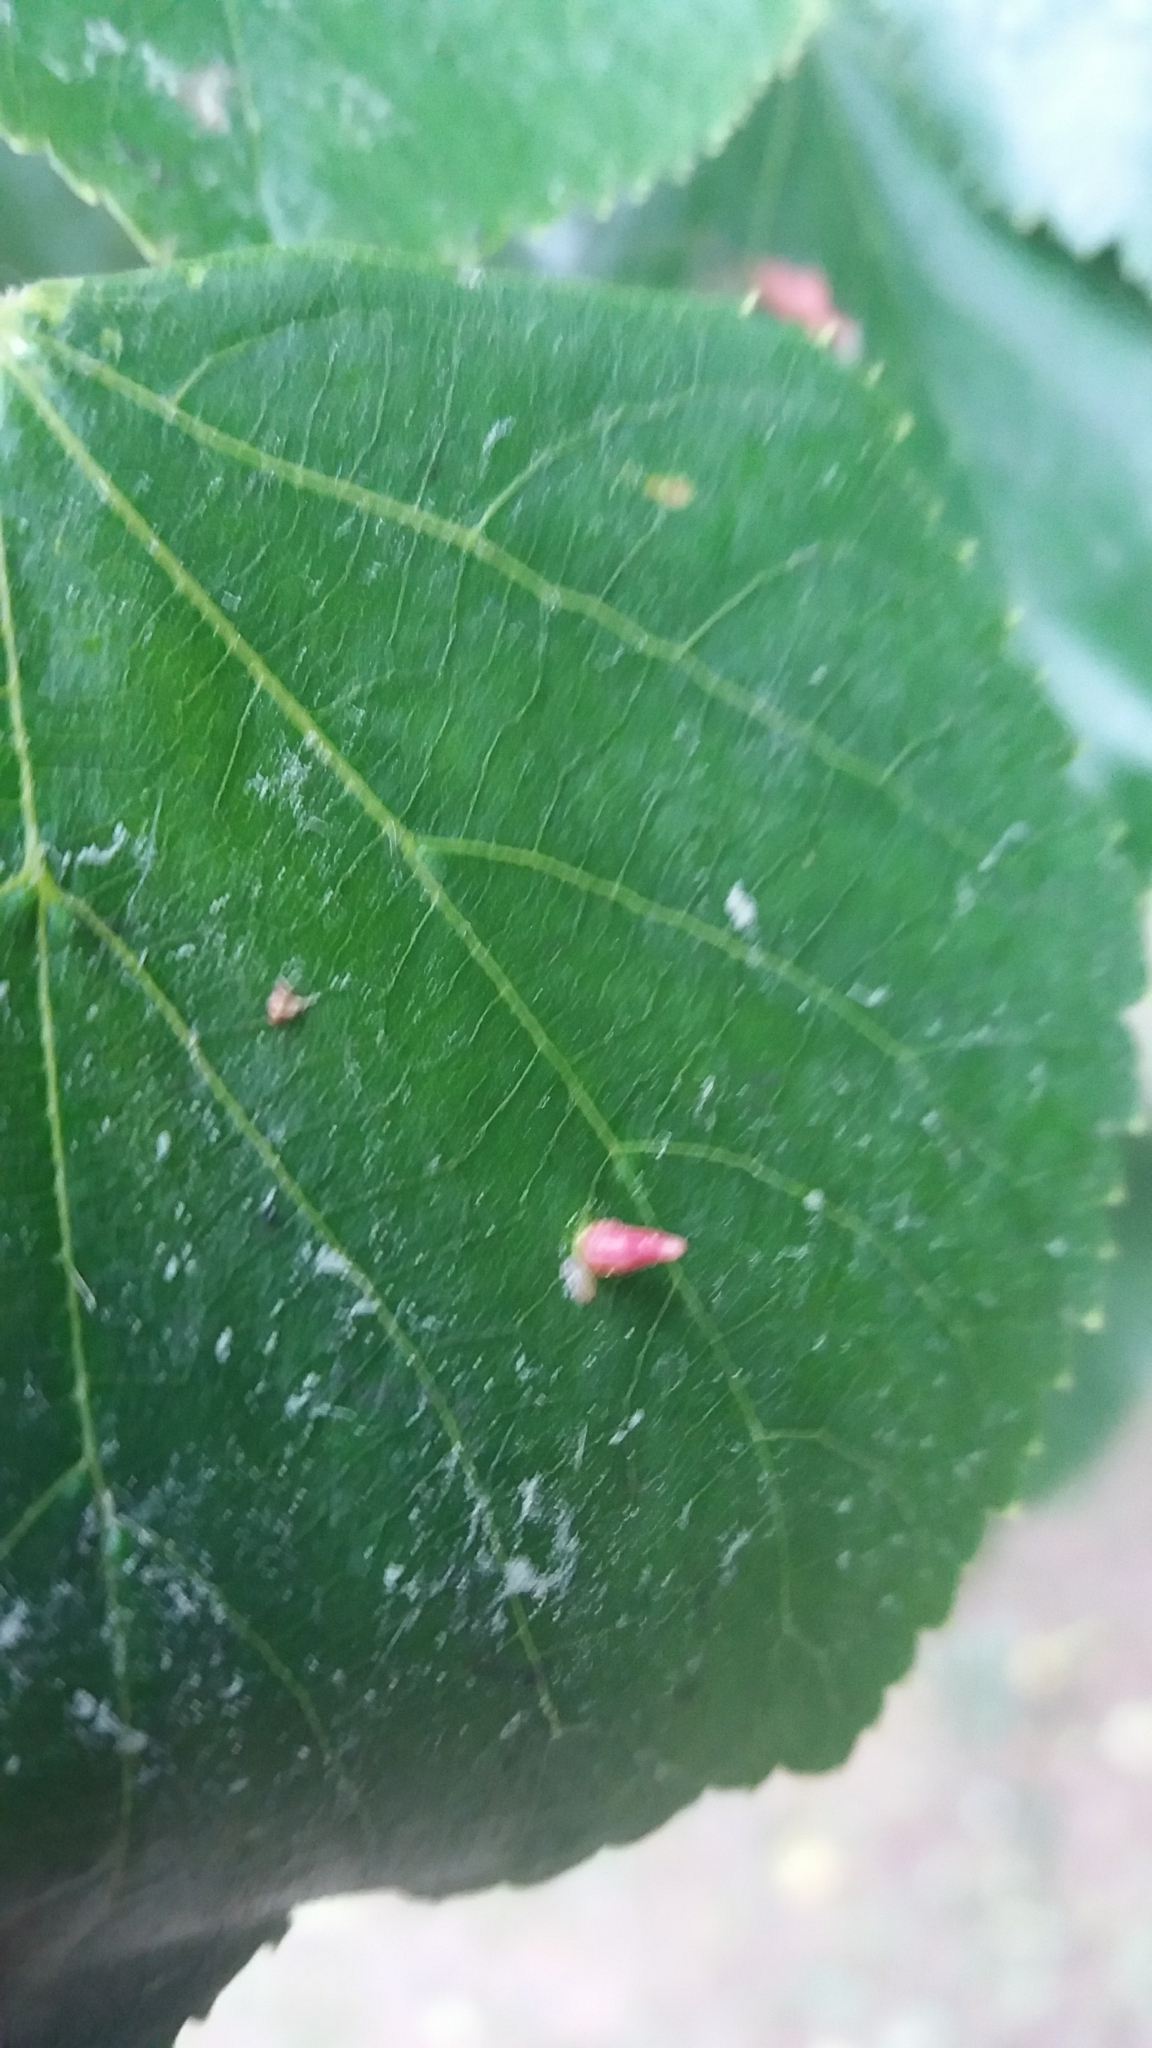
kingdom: Animalia
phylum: Arthropoda
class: Arachnida
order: Trombidiformes
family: Eriophyidae
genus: Eriophyes
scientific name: Eriophyes tiliae
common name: Red nail gall mite
